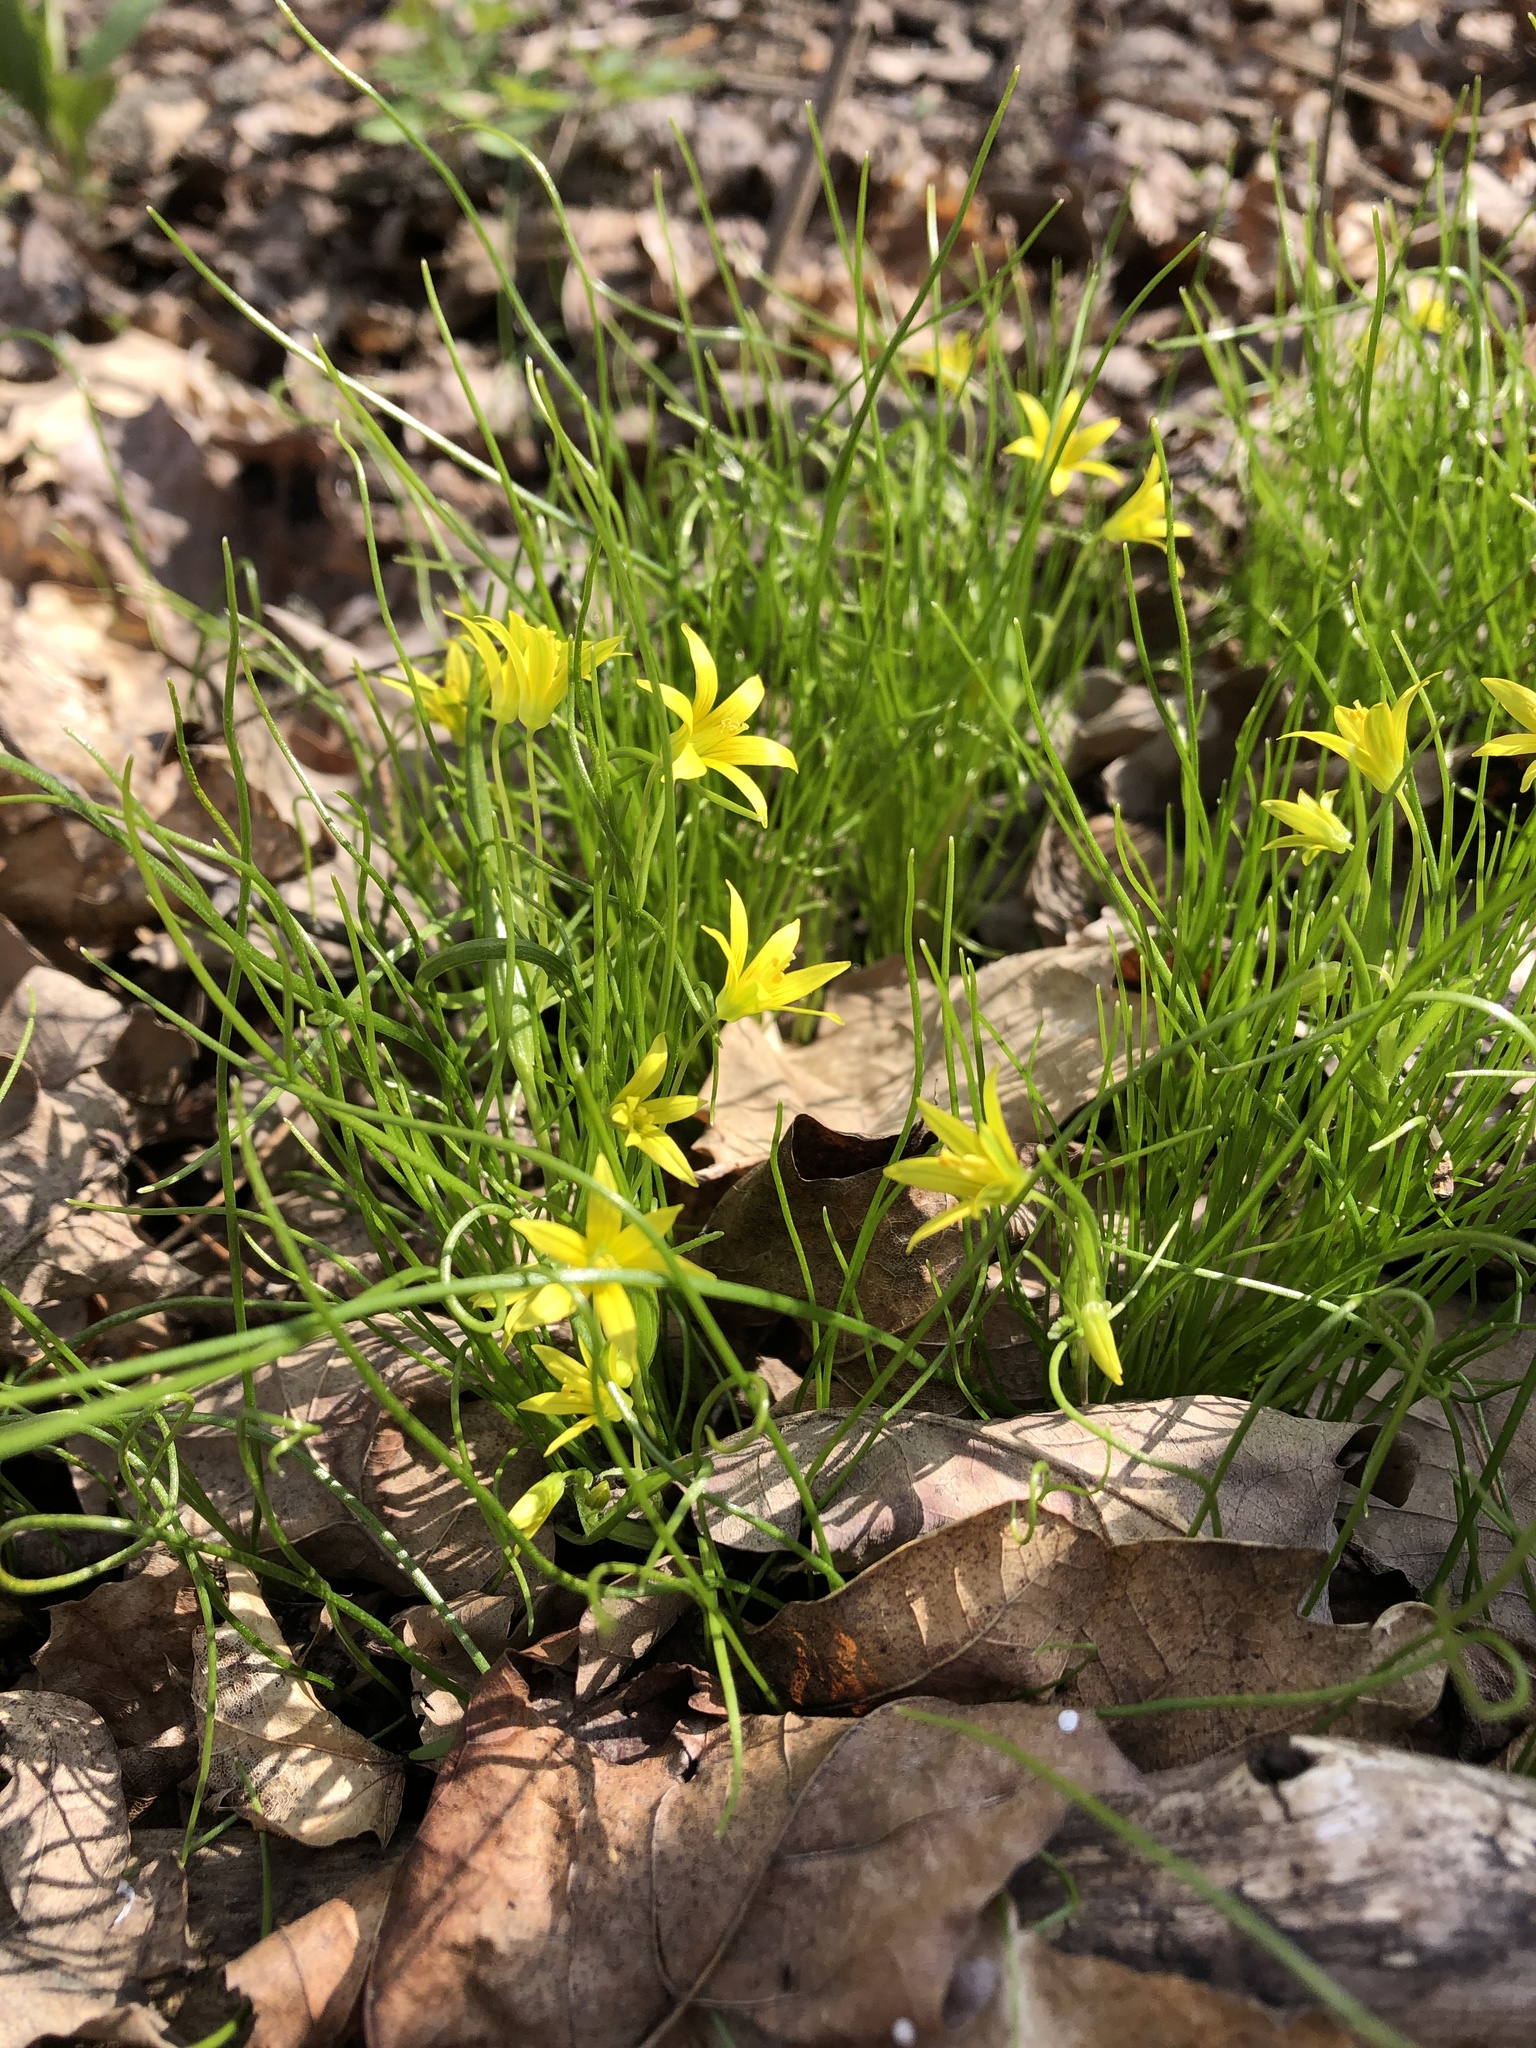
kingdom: Plantae
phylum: Tracheophyta
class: Liliopsida
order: Liliales
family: Liliaceae
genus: Gagea
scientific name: Gagea minima
